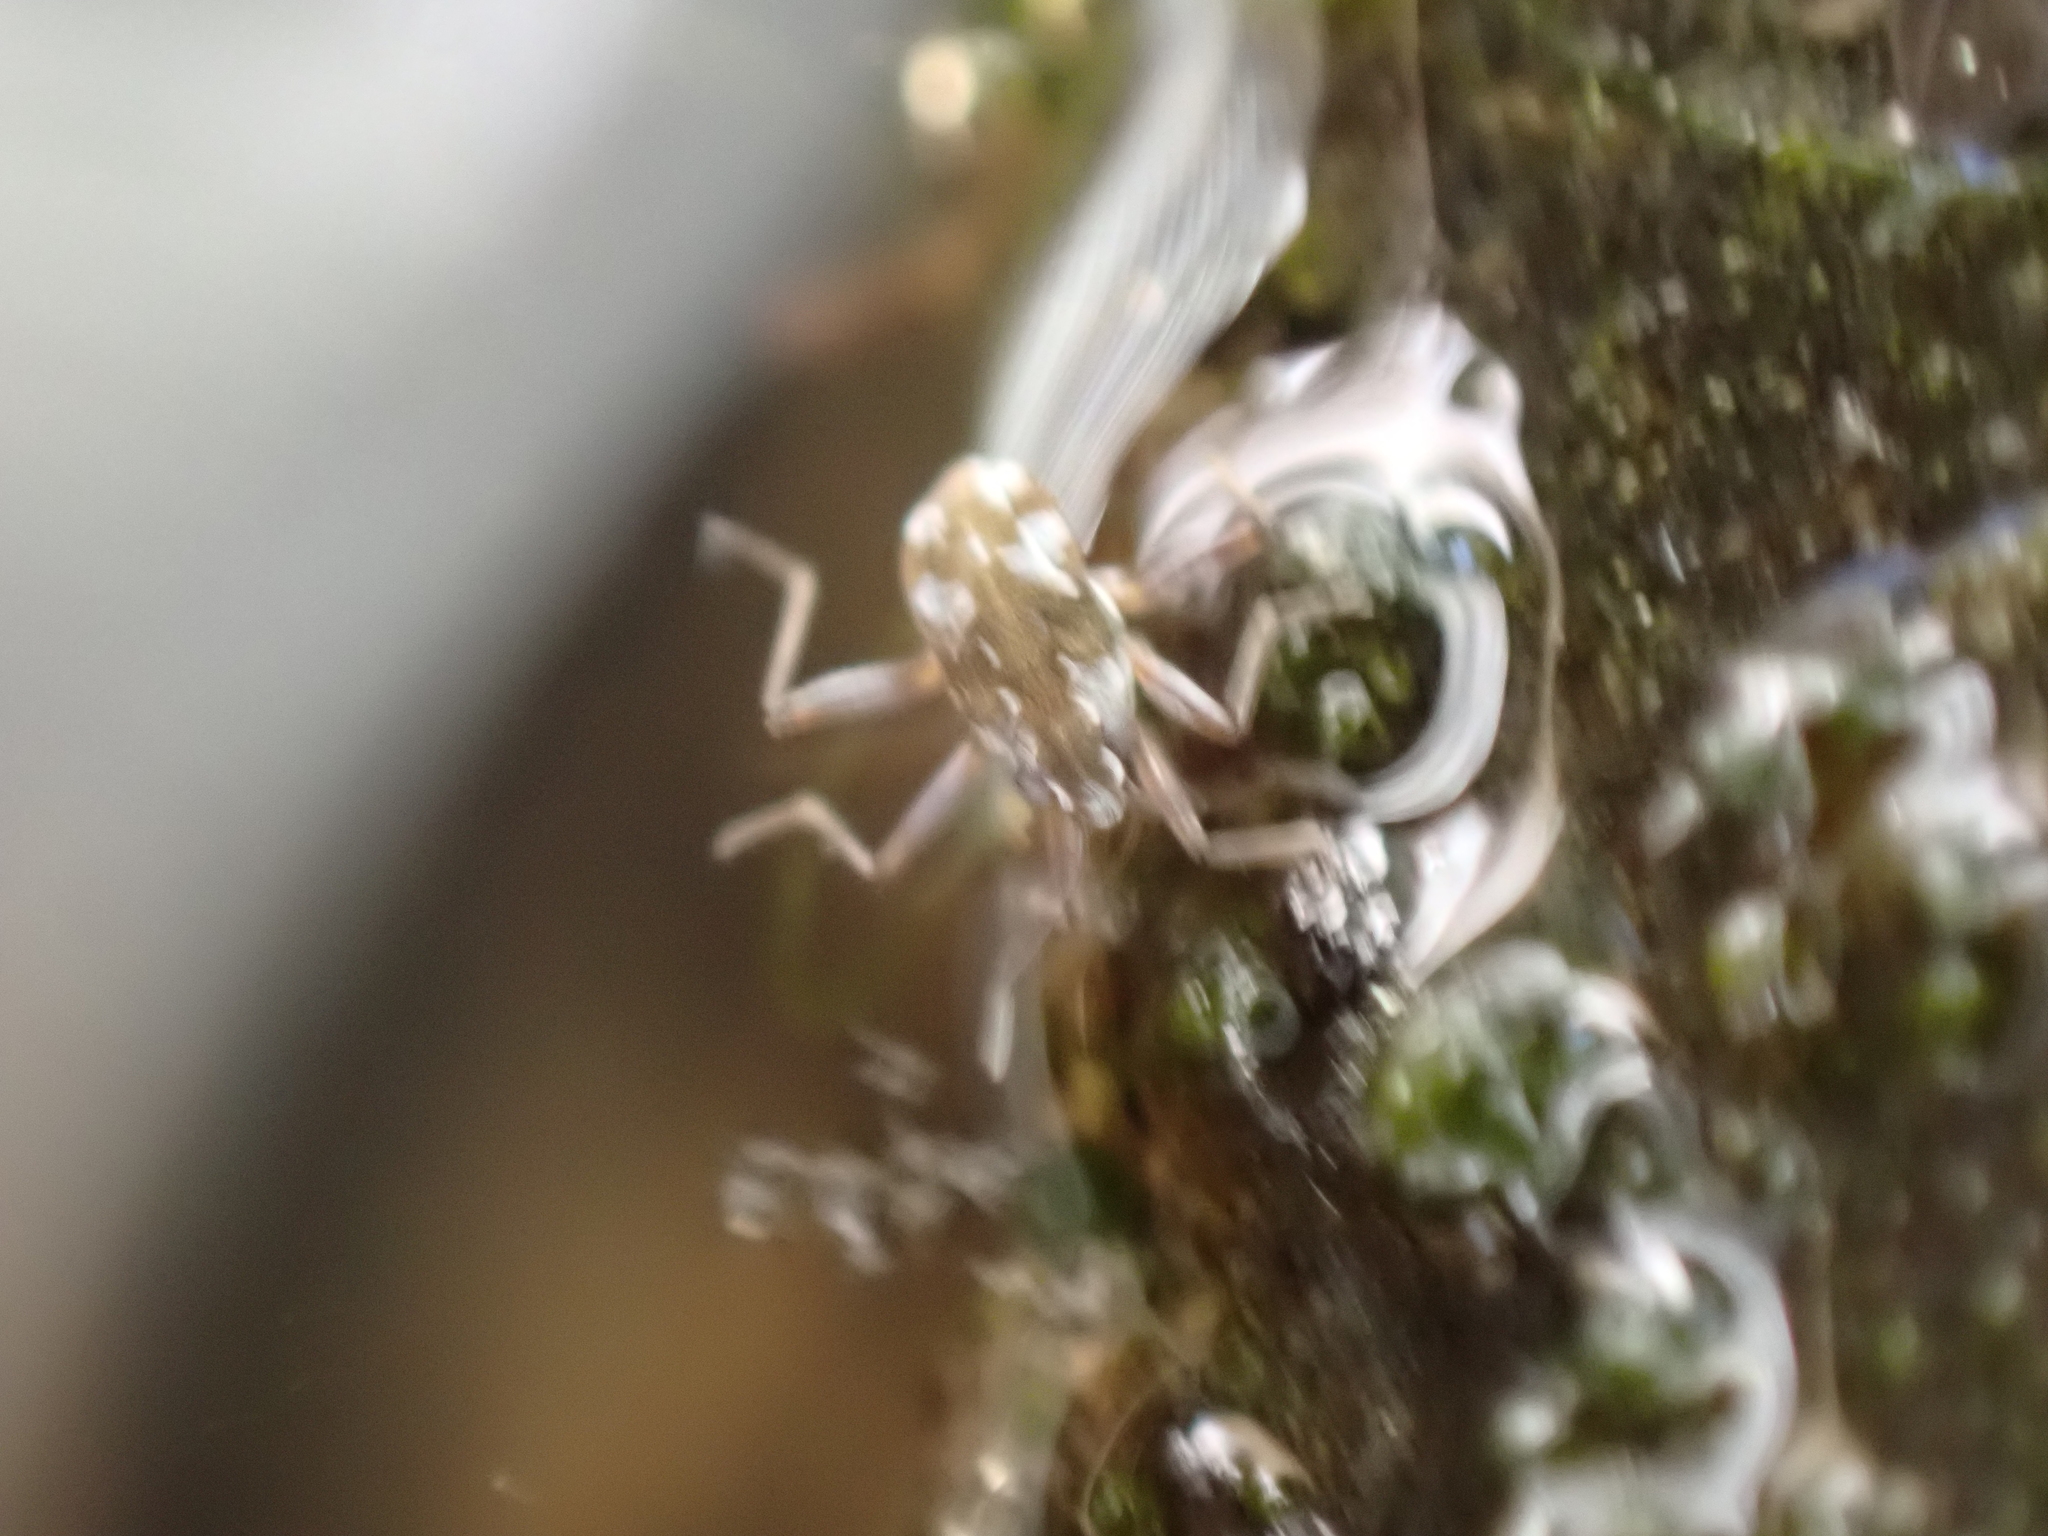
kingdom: Animalia
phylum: Arthropoda
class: Insecta
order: Hemiptera
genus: Kirkaldya
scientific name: Kirkaldya
